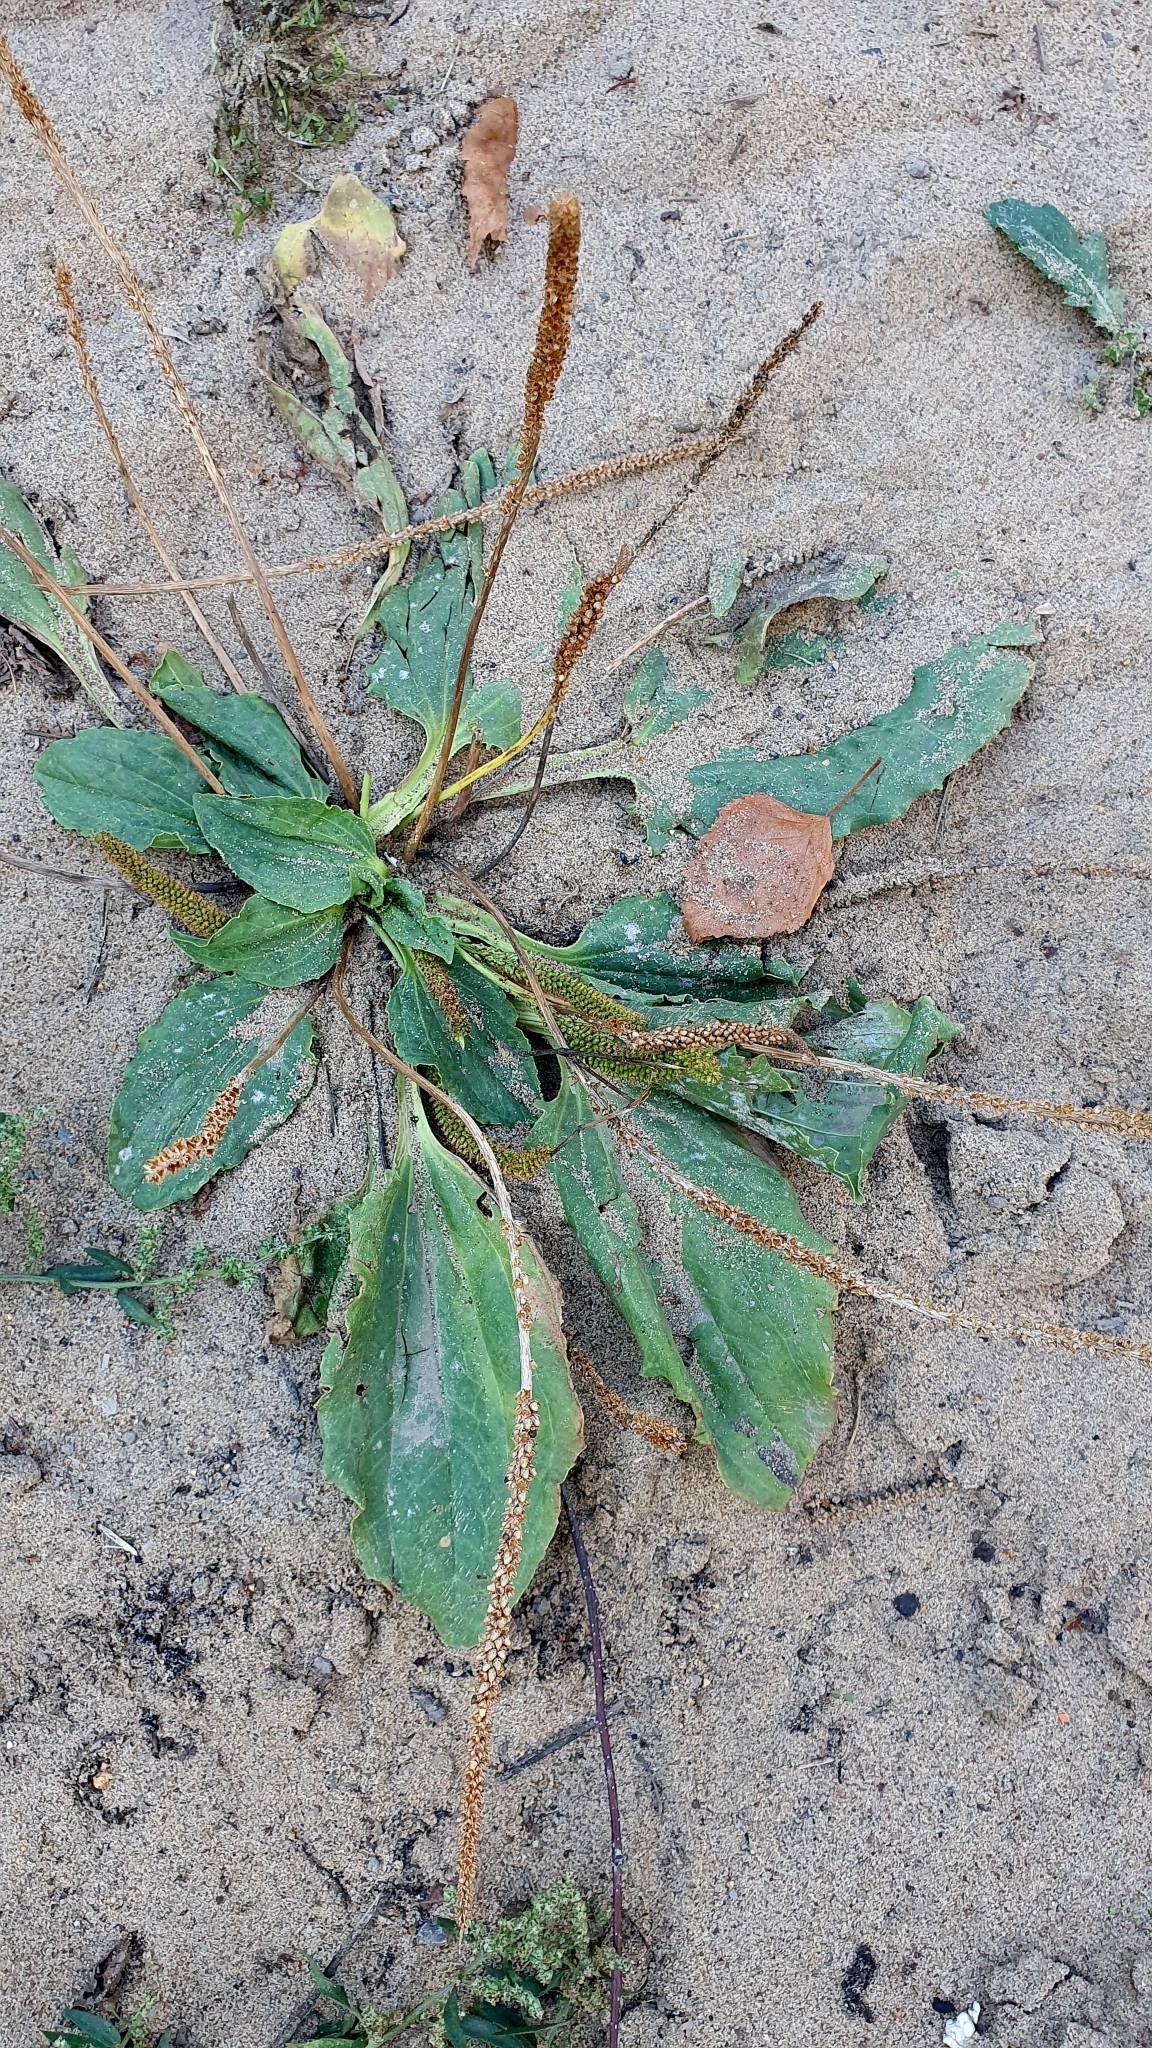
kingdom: Plantae
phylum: Tracheophyta
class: Magnoliopsida
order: Lamiales
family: Plantaginaceae
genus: Plantago
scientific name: Plantago major
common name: Common plantain
